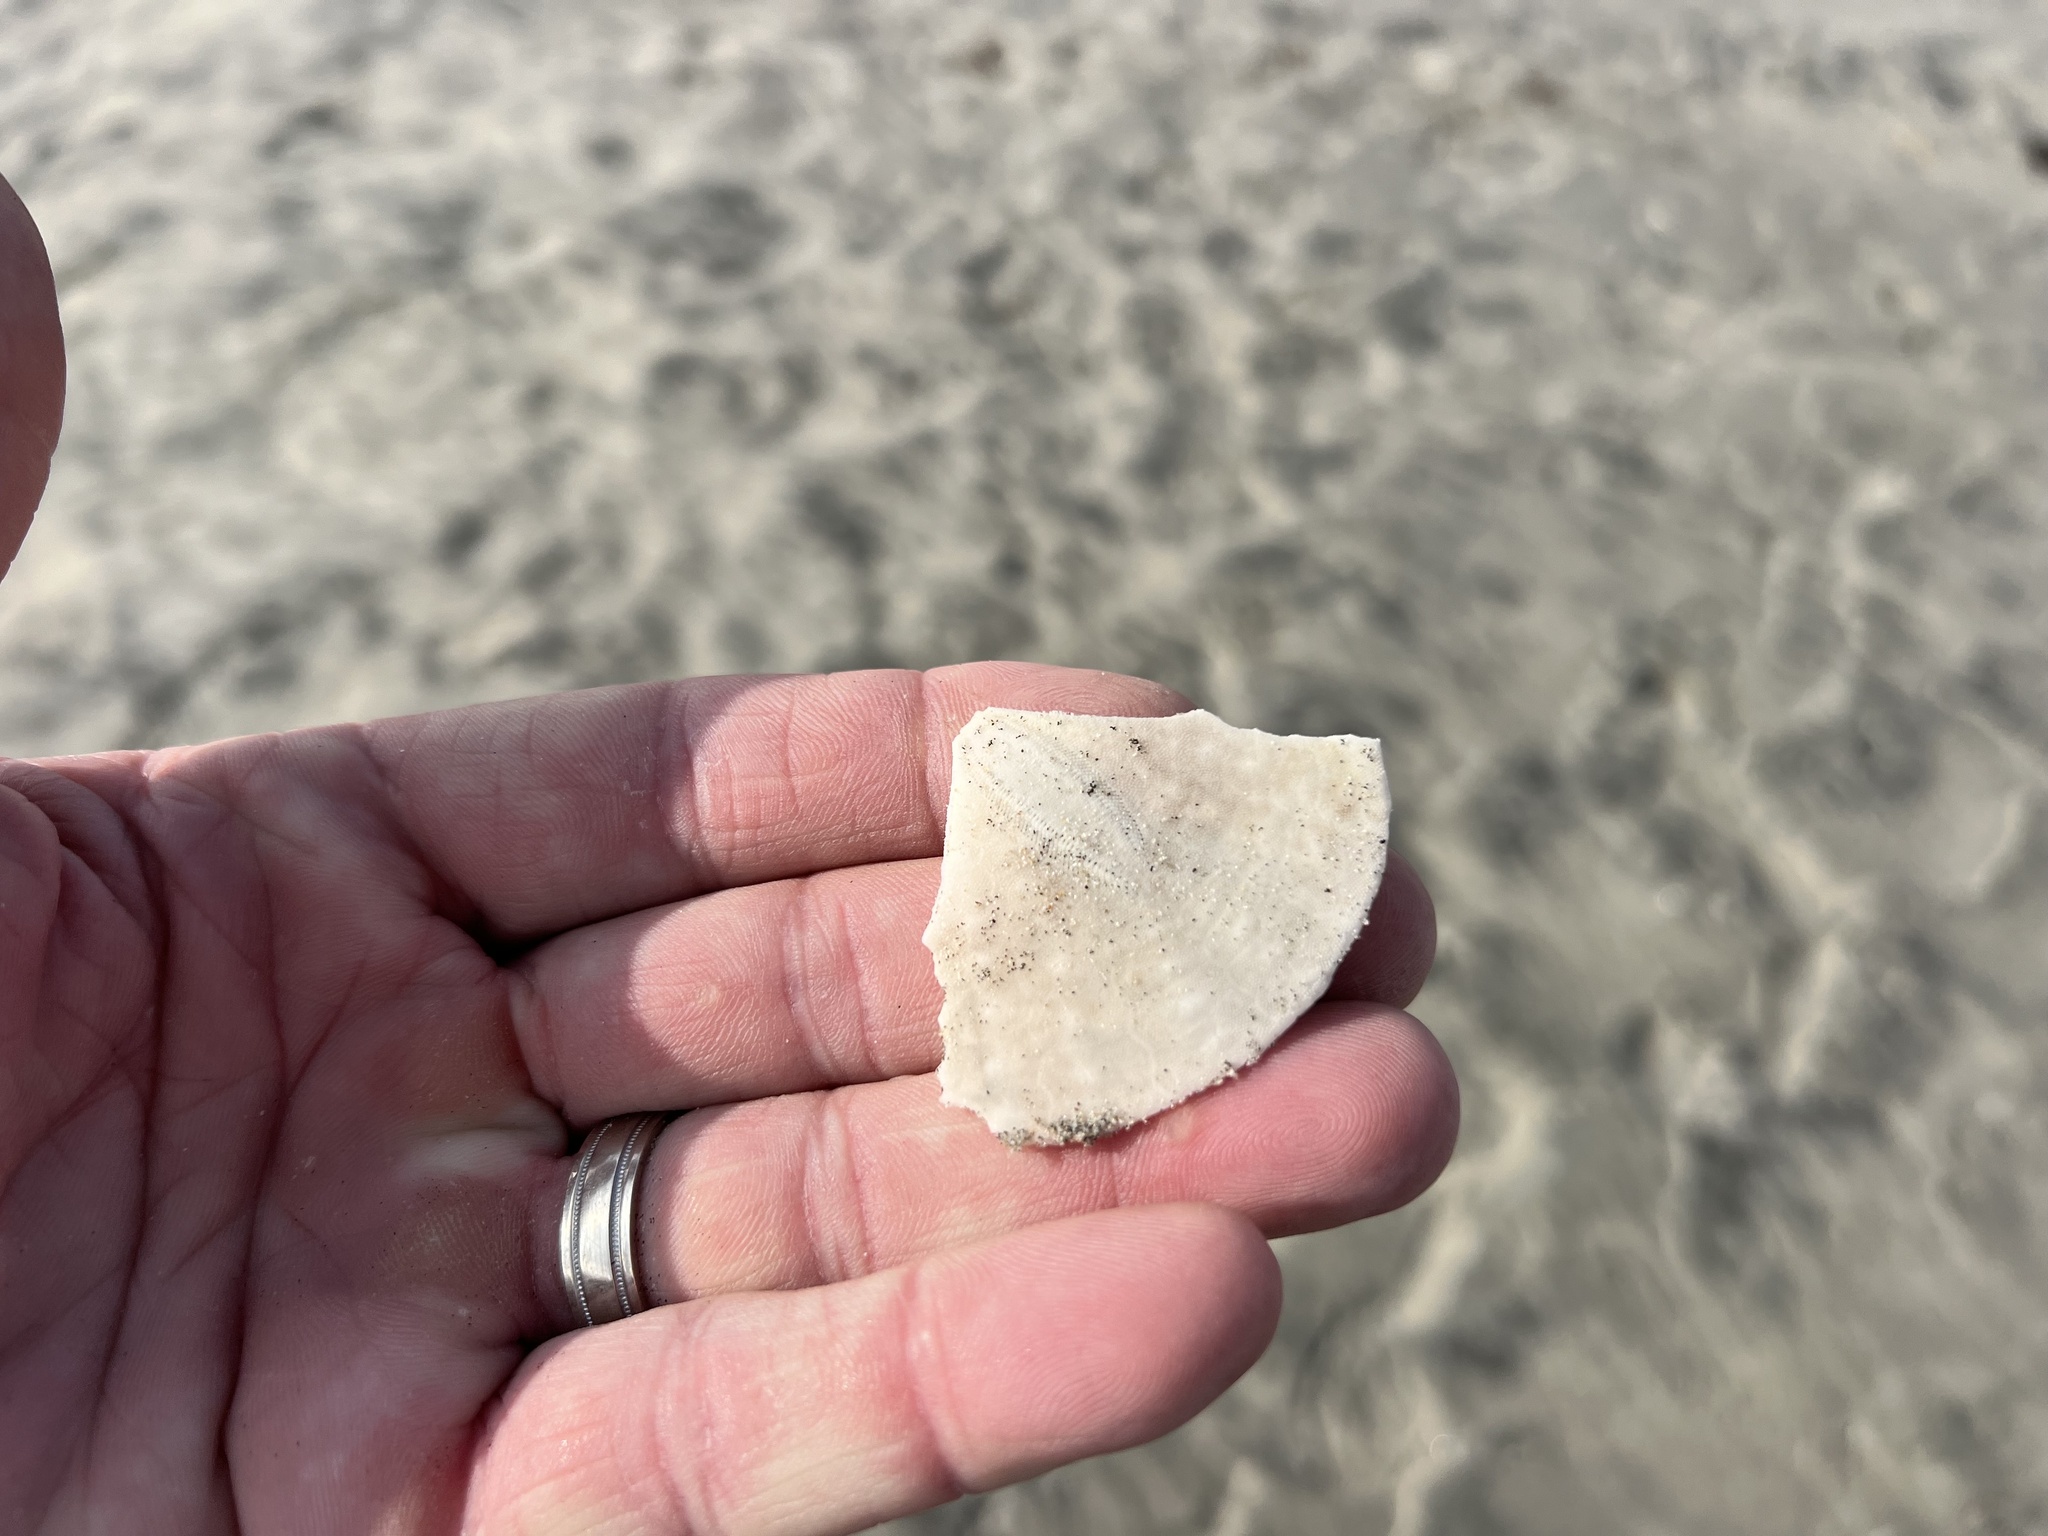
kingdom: Animalia
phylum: Echinodermata
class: Echinoidea
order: Echinolampadacea
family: Dendrasteridae
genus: Dendraster
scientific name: Dendraster excentricus
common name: Eccentric sand dollar sea urchin
